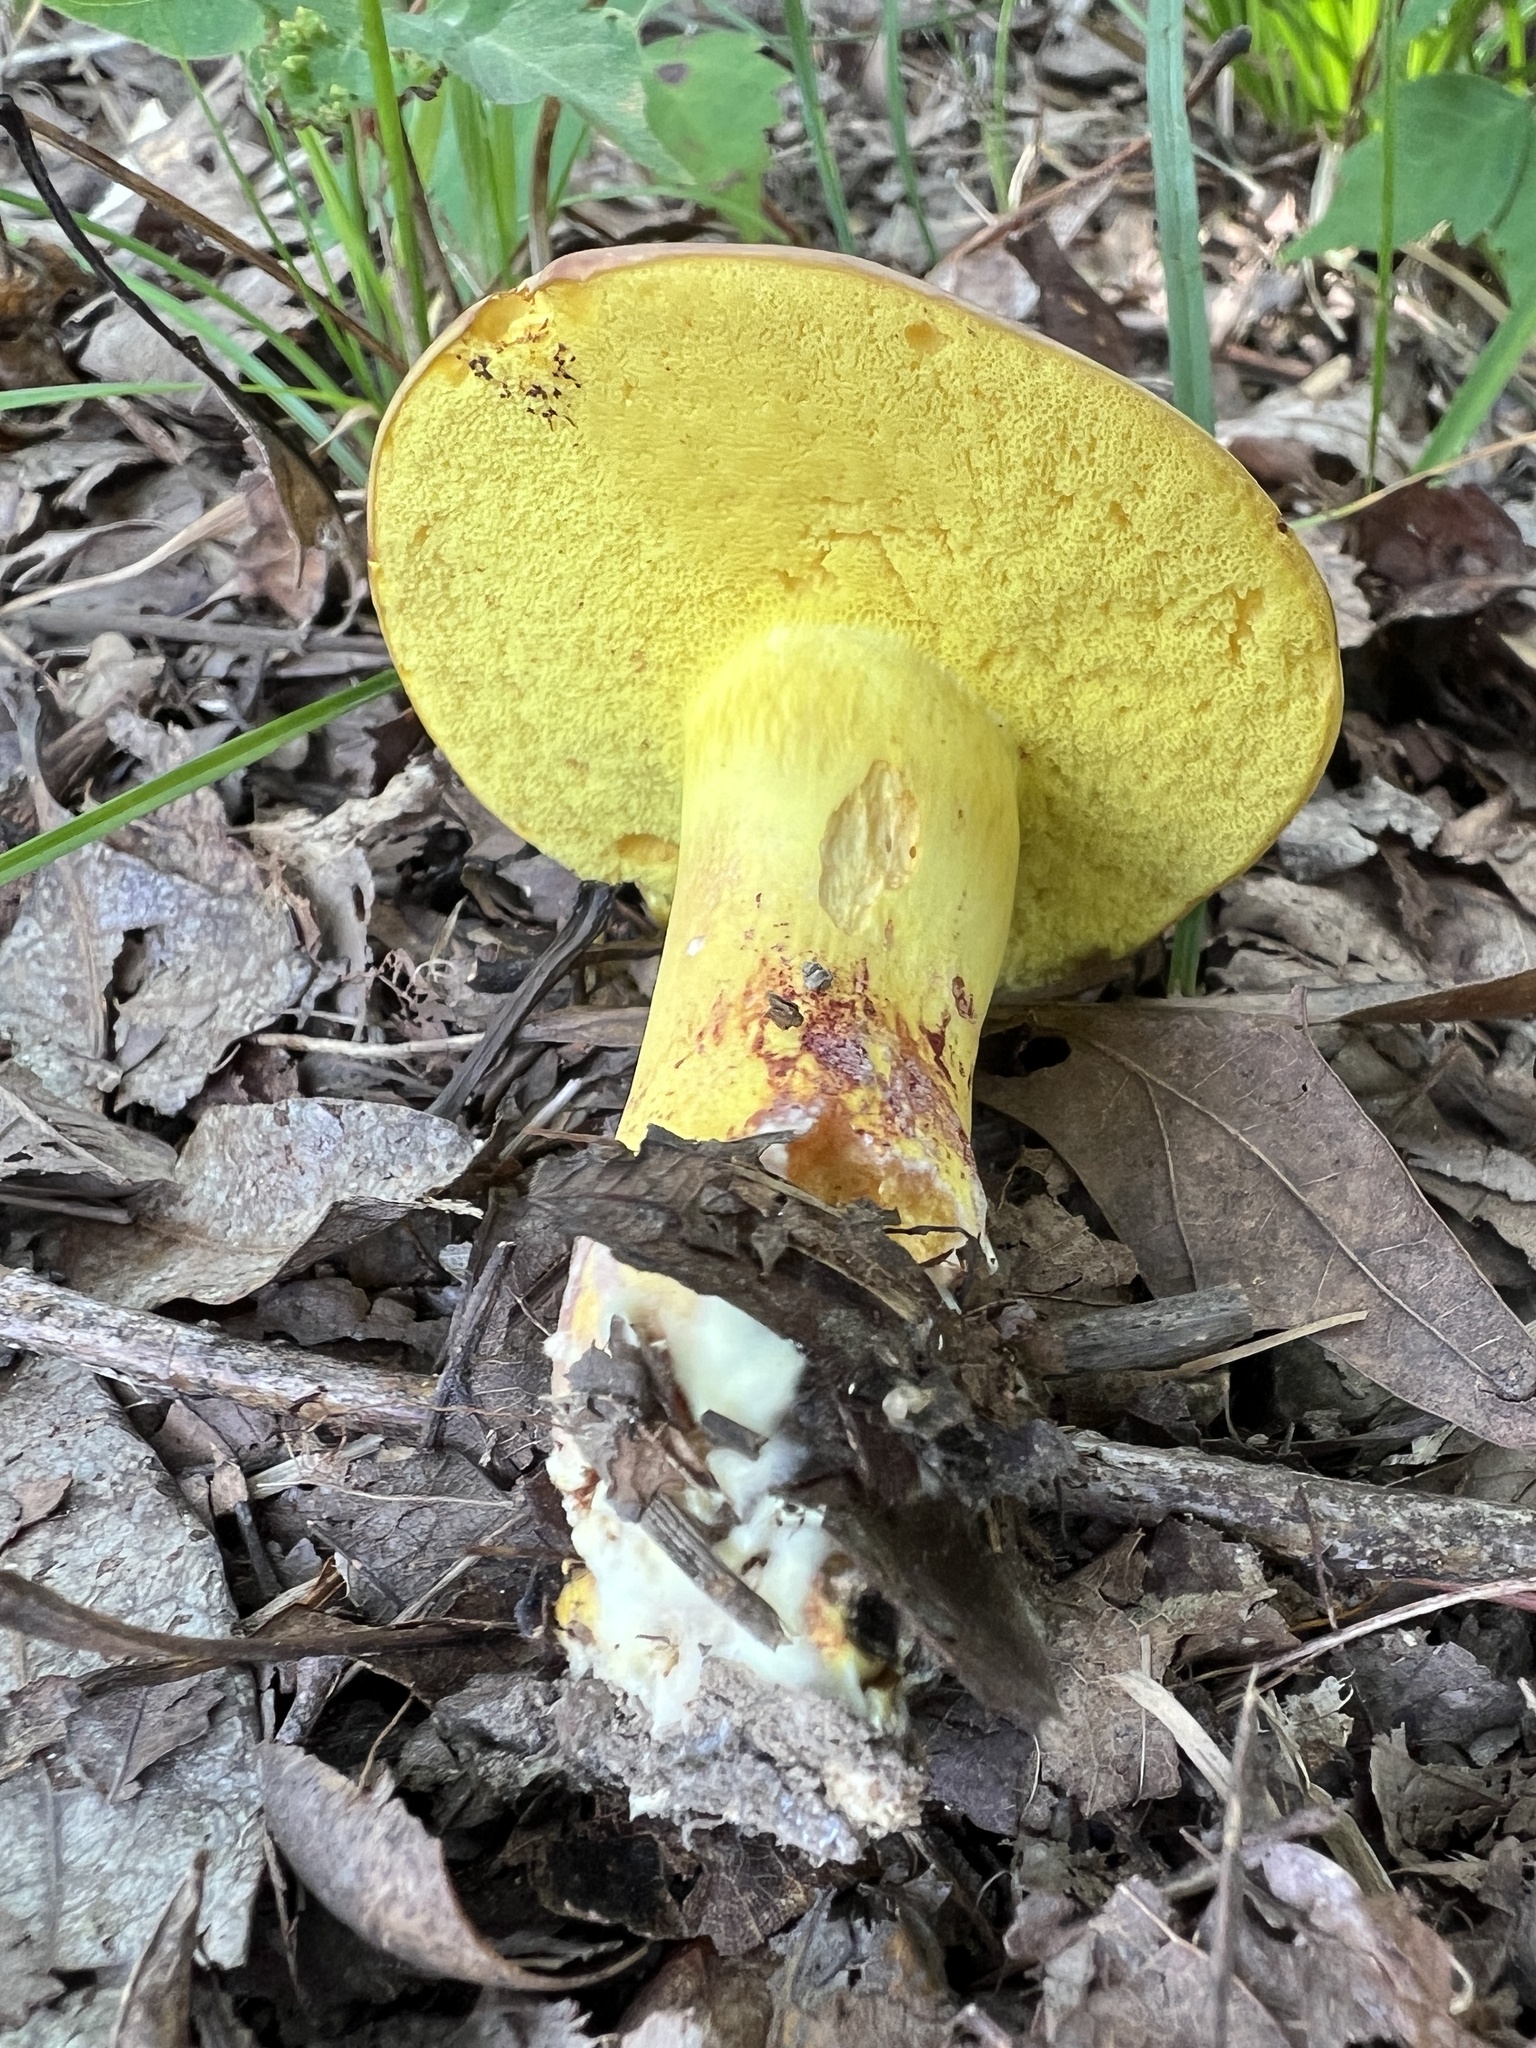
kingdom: Fungi
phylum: Basidiomycota
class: Agaricomycetes
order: Boletales
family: Boletaceae
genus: Boletus
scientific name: Boletus roodyi
